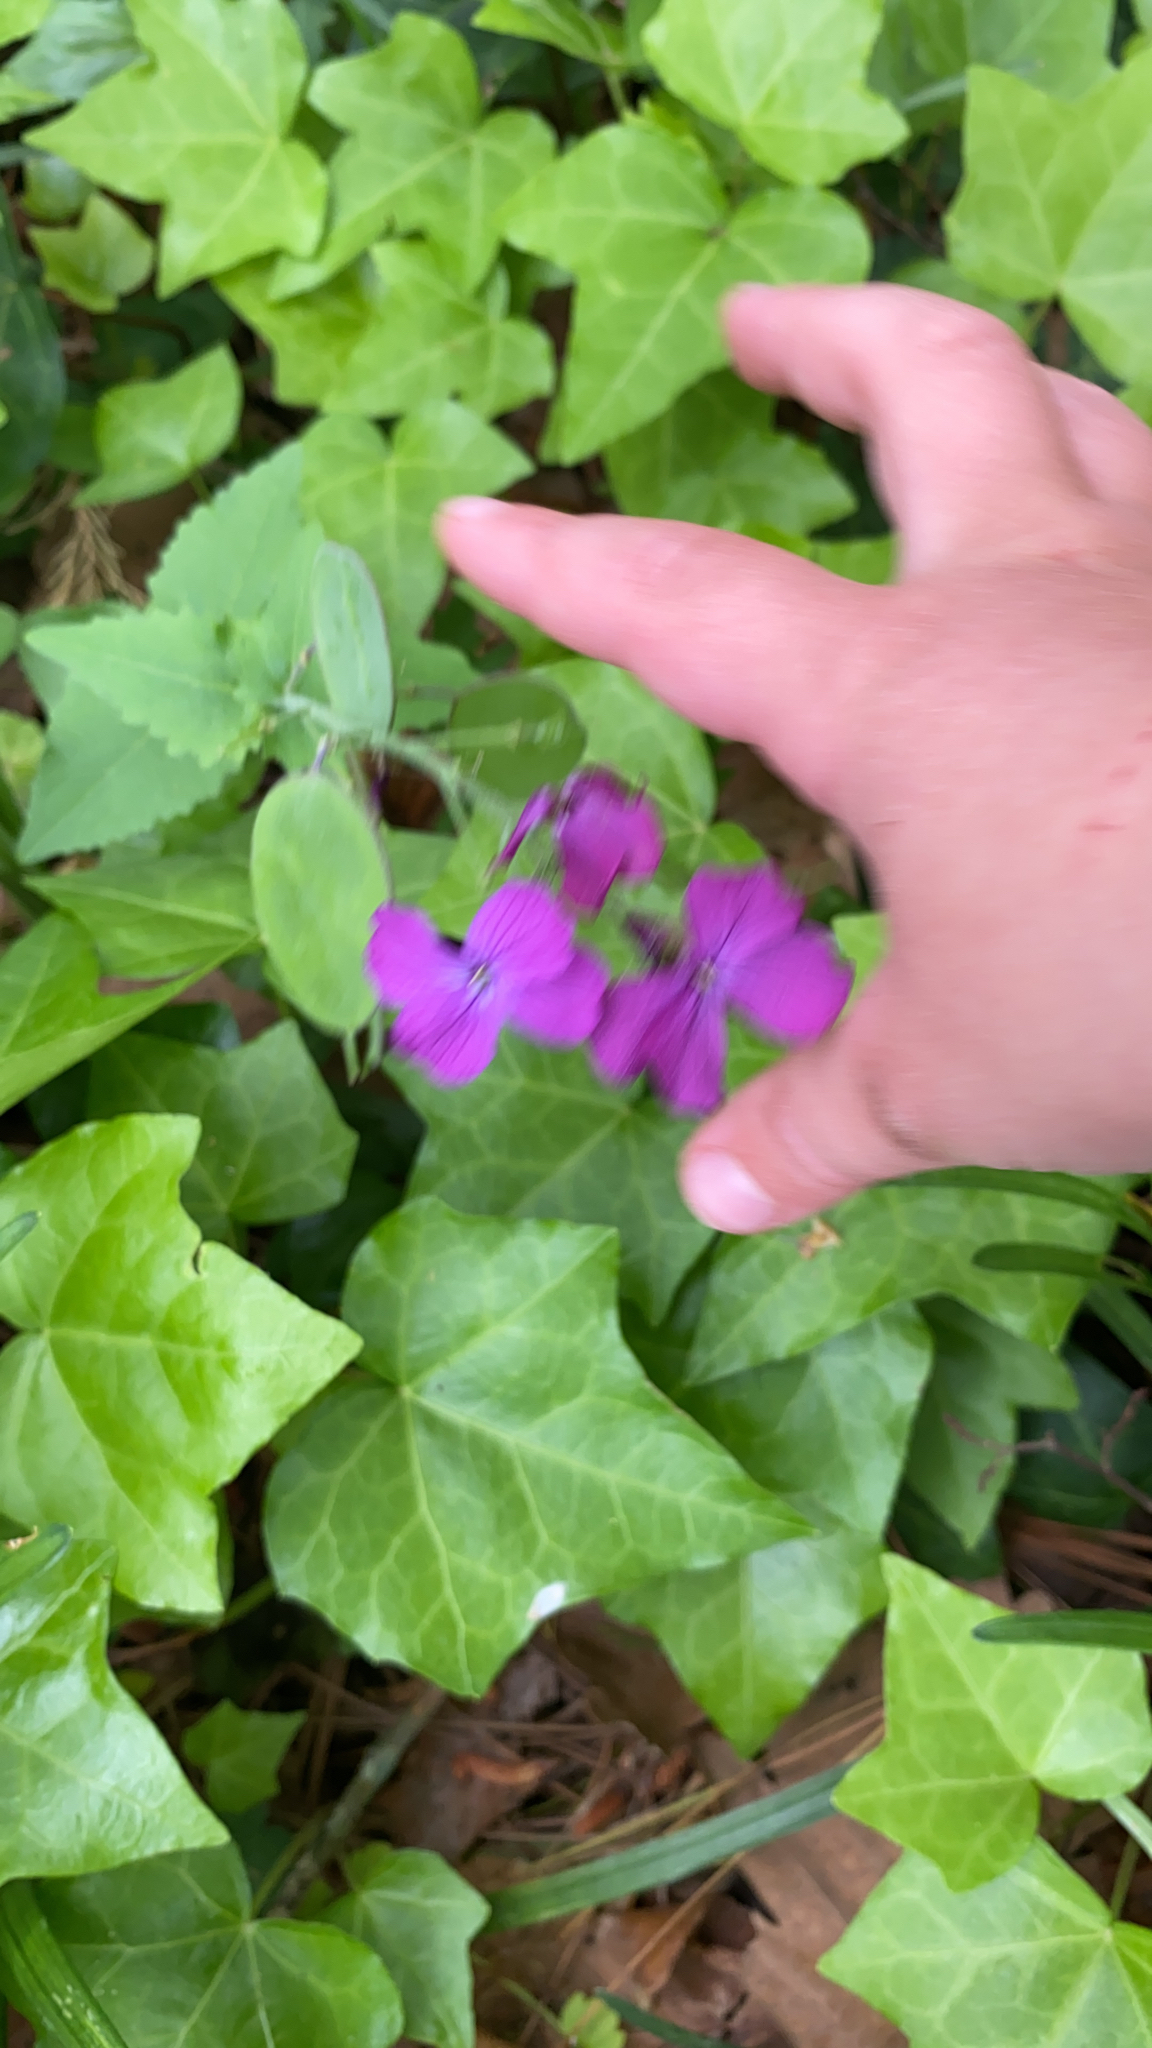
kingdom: Plantae
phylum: Tracheophyta
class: Magnoliopsida
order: Brassicales
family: Brassicaceae
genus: Lunaria
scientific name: Lunaria annua
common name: Honesty
